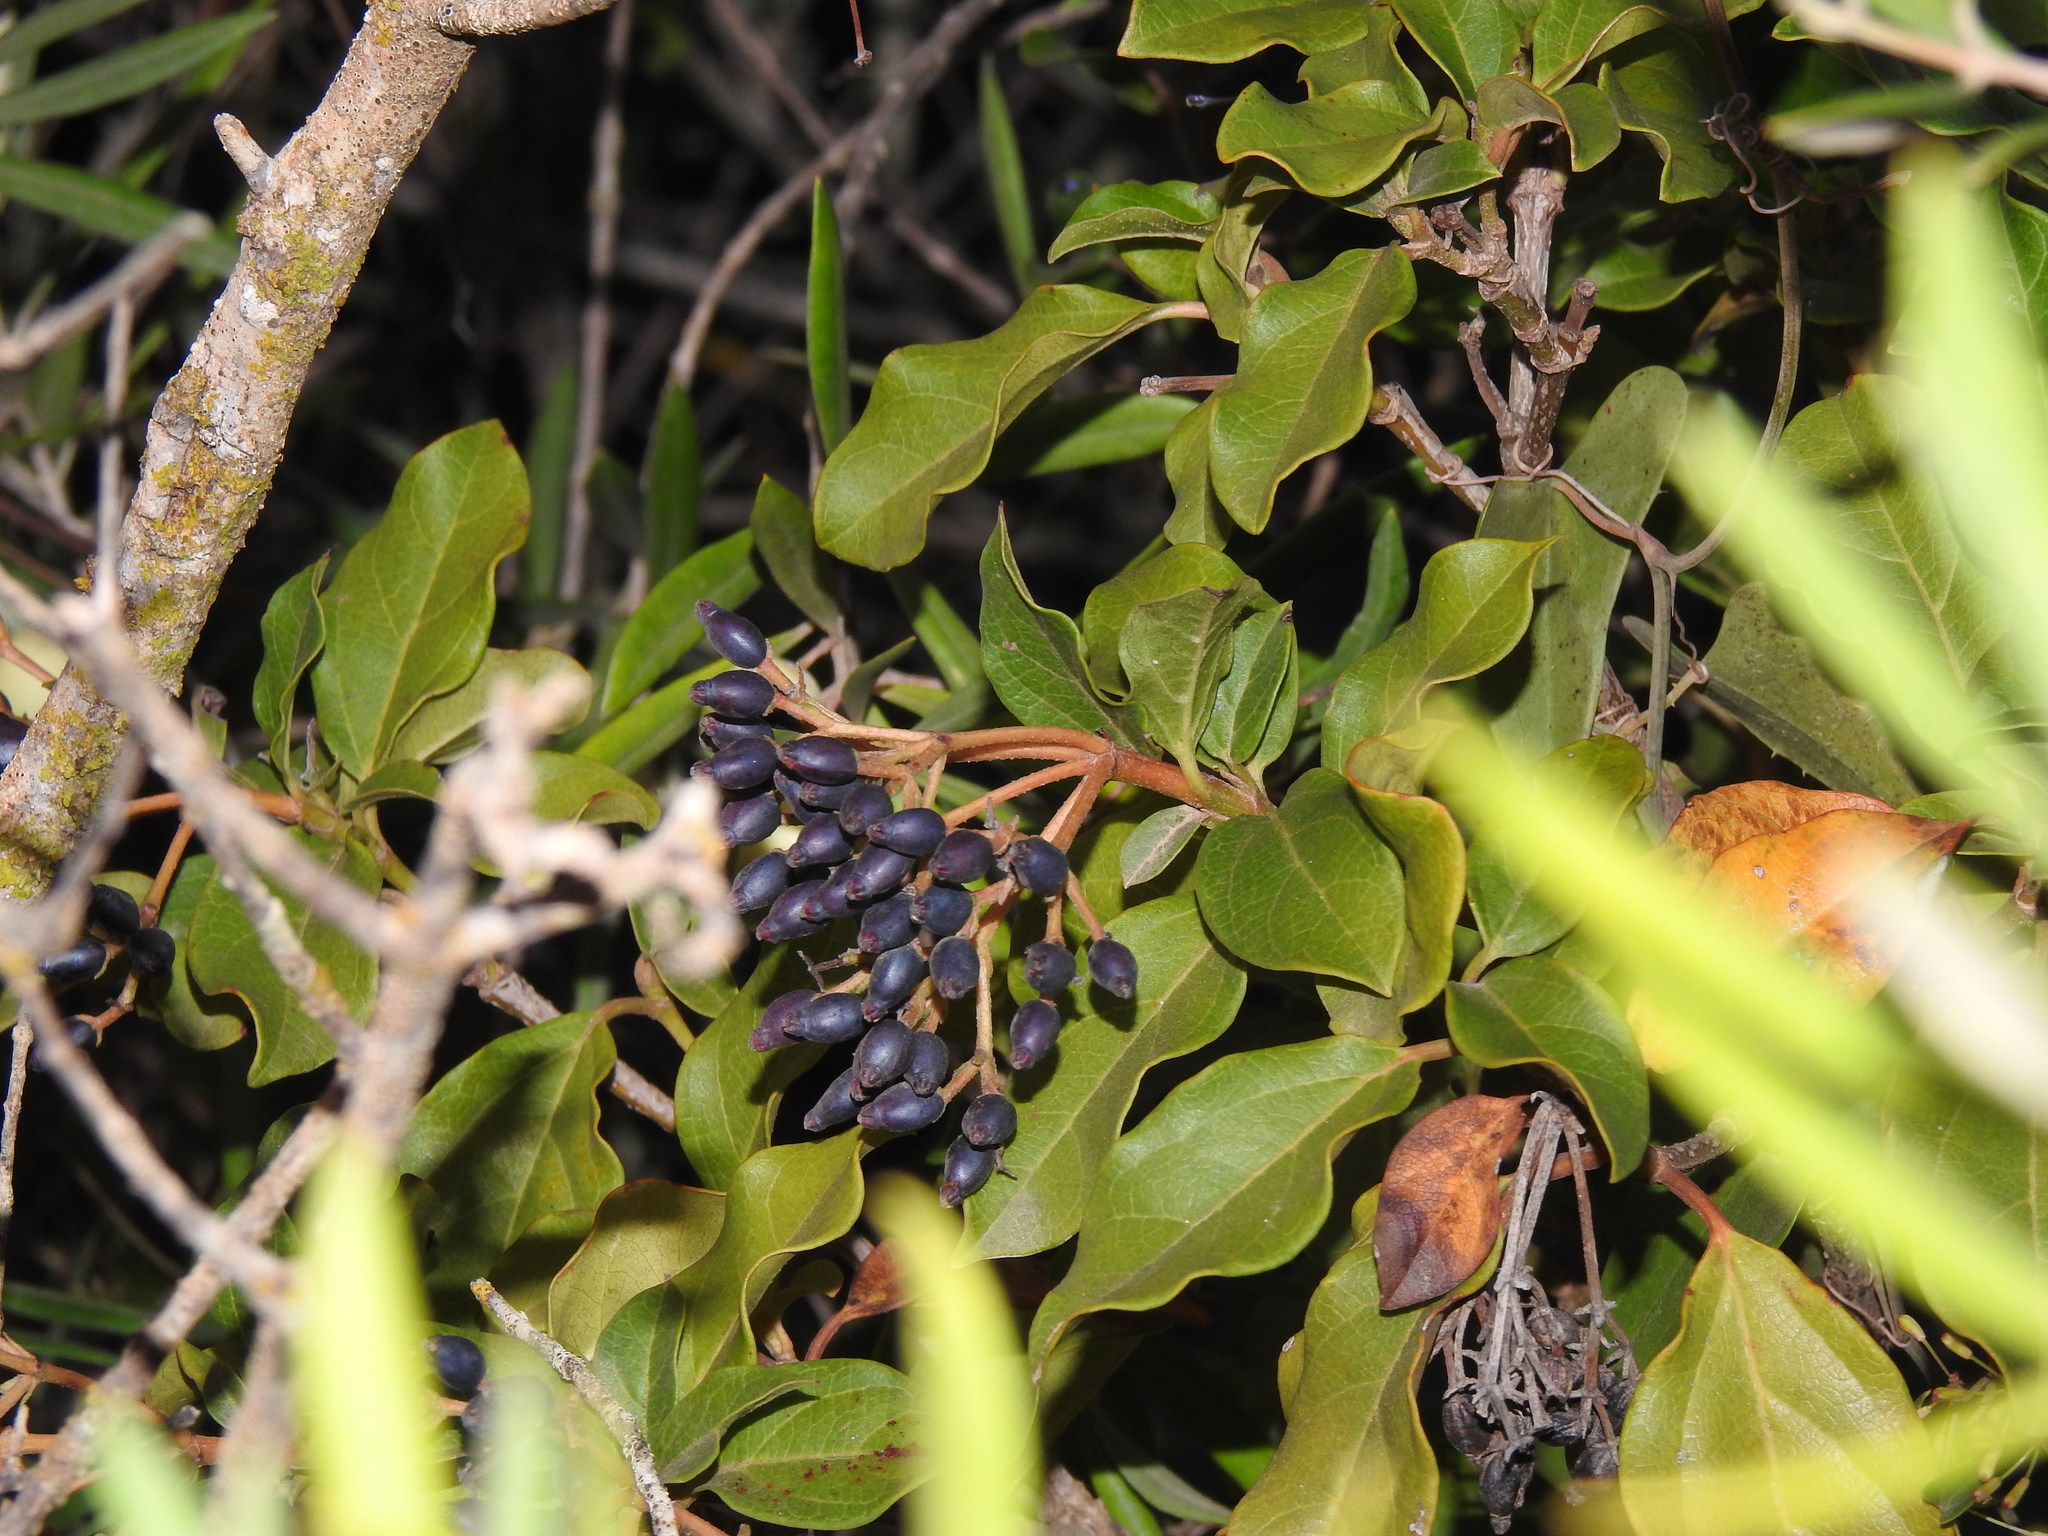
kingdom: Plantae
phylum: Tracheophyta
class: Magnoliopsida
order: Dipsacales
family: Viburnaceae
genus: Viburnum
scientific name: Viburnum tinus
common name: Laurustinus
